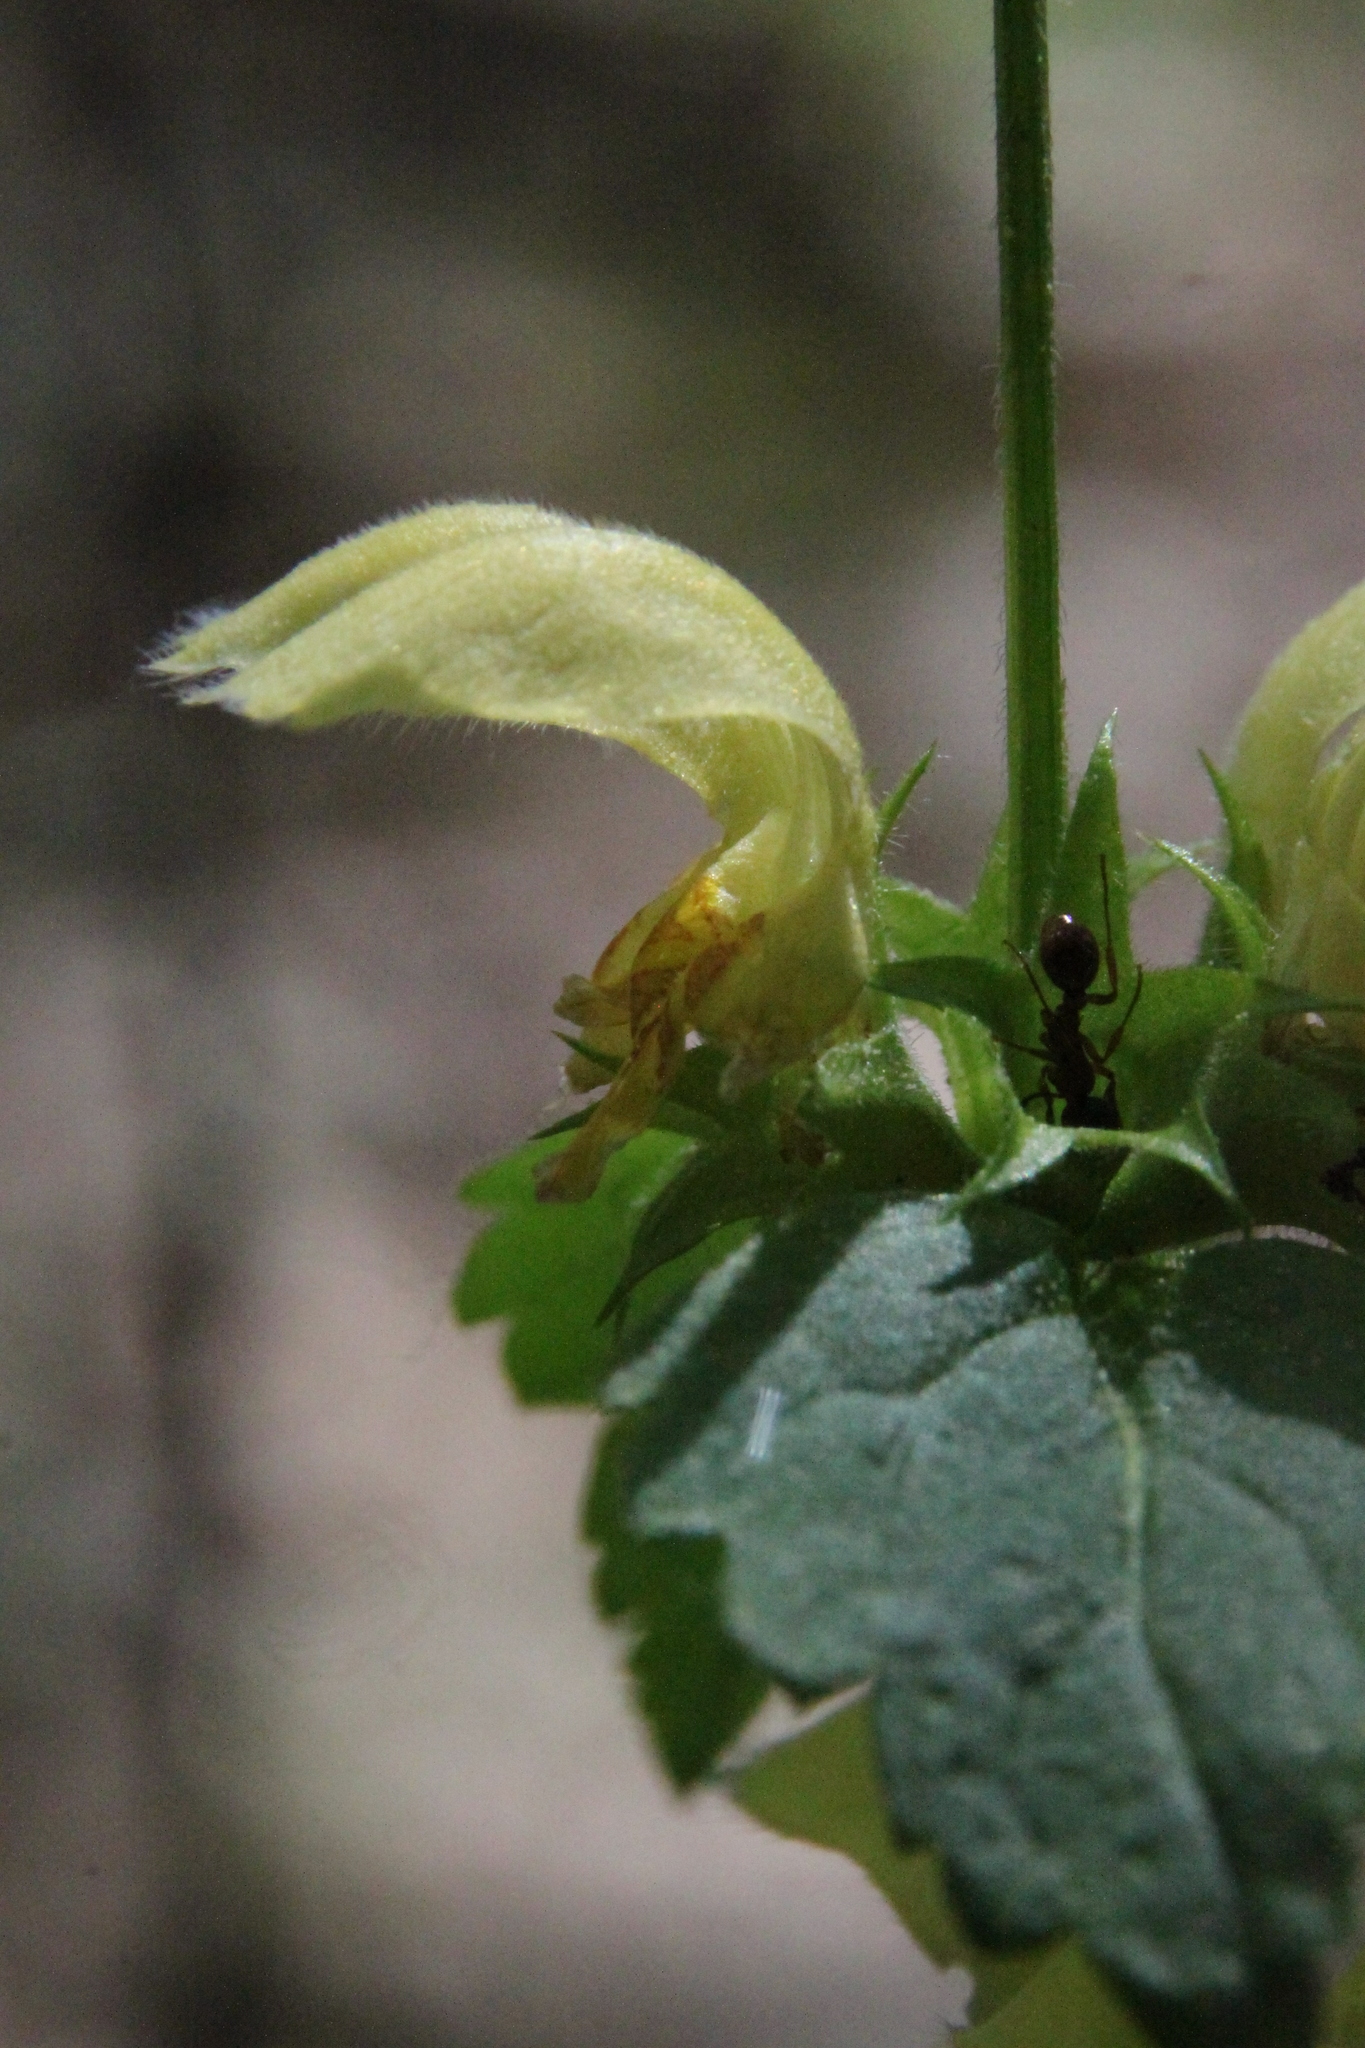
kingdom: Plantae
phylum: Tracheophyta
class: Magnoliopsida
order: Lamiales
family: Lamiaceae
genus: Lamium
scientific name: Lamium galeobdolon
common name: Yellow archangel
